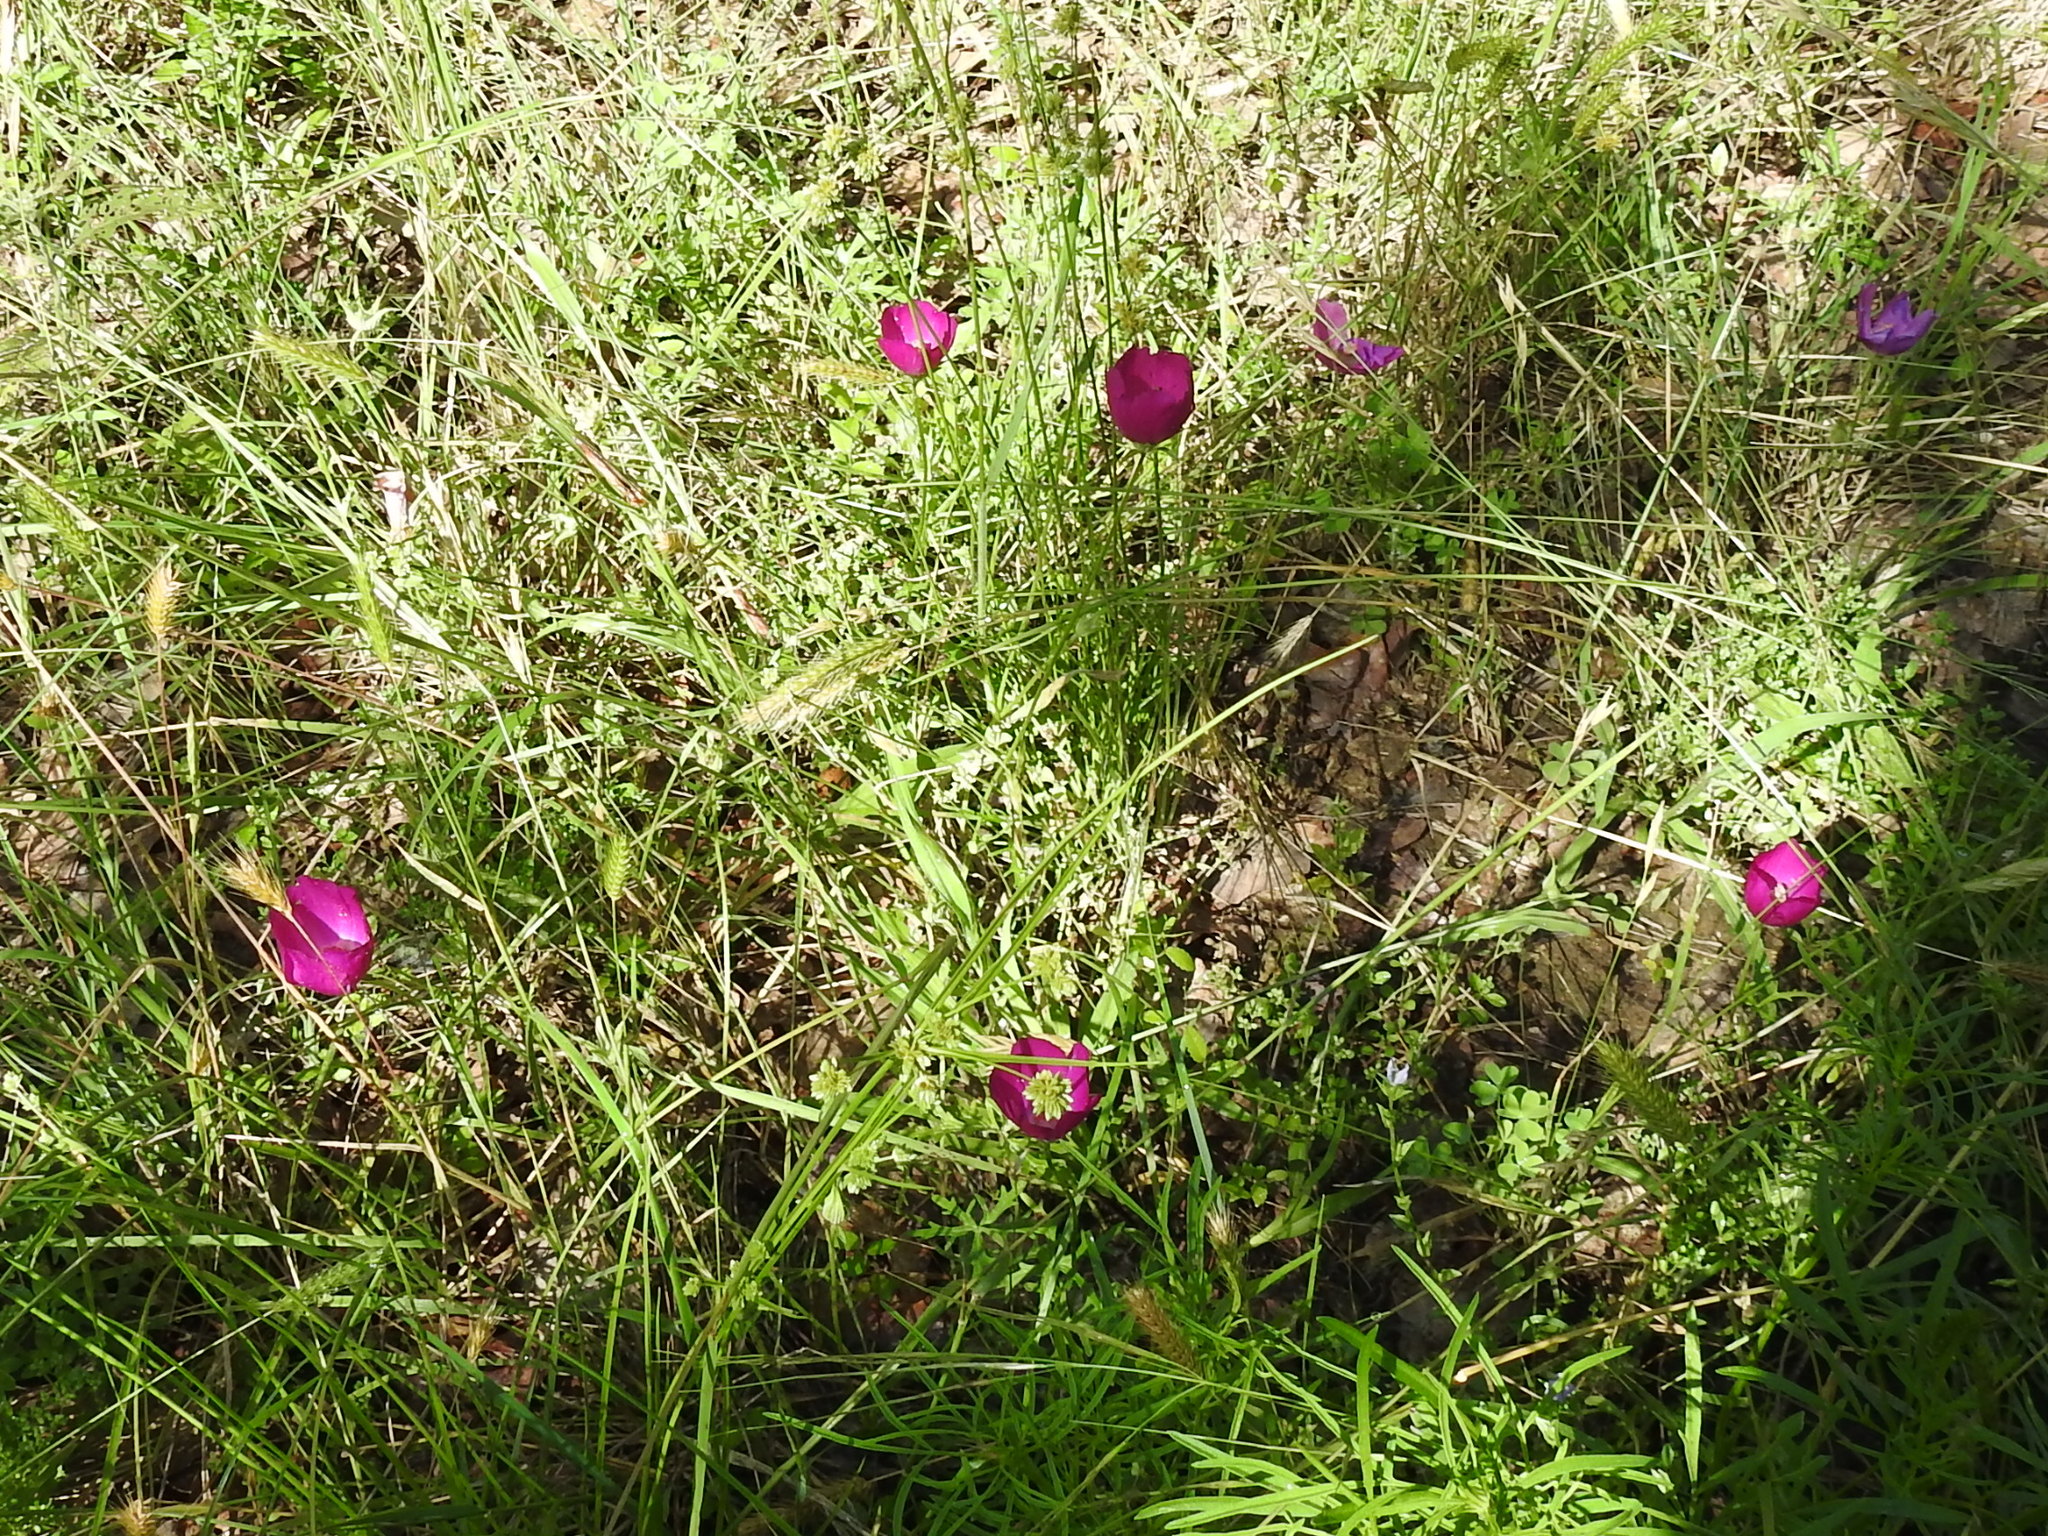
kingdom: Plantae
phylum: Tracheophyta
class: Magnoliopsida
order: Malvales
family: Malvaceae
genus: Callirhoe
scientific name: Callirhoe involucrata
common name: Purple poppy-mallow
